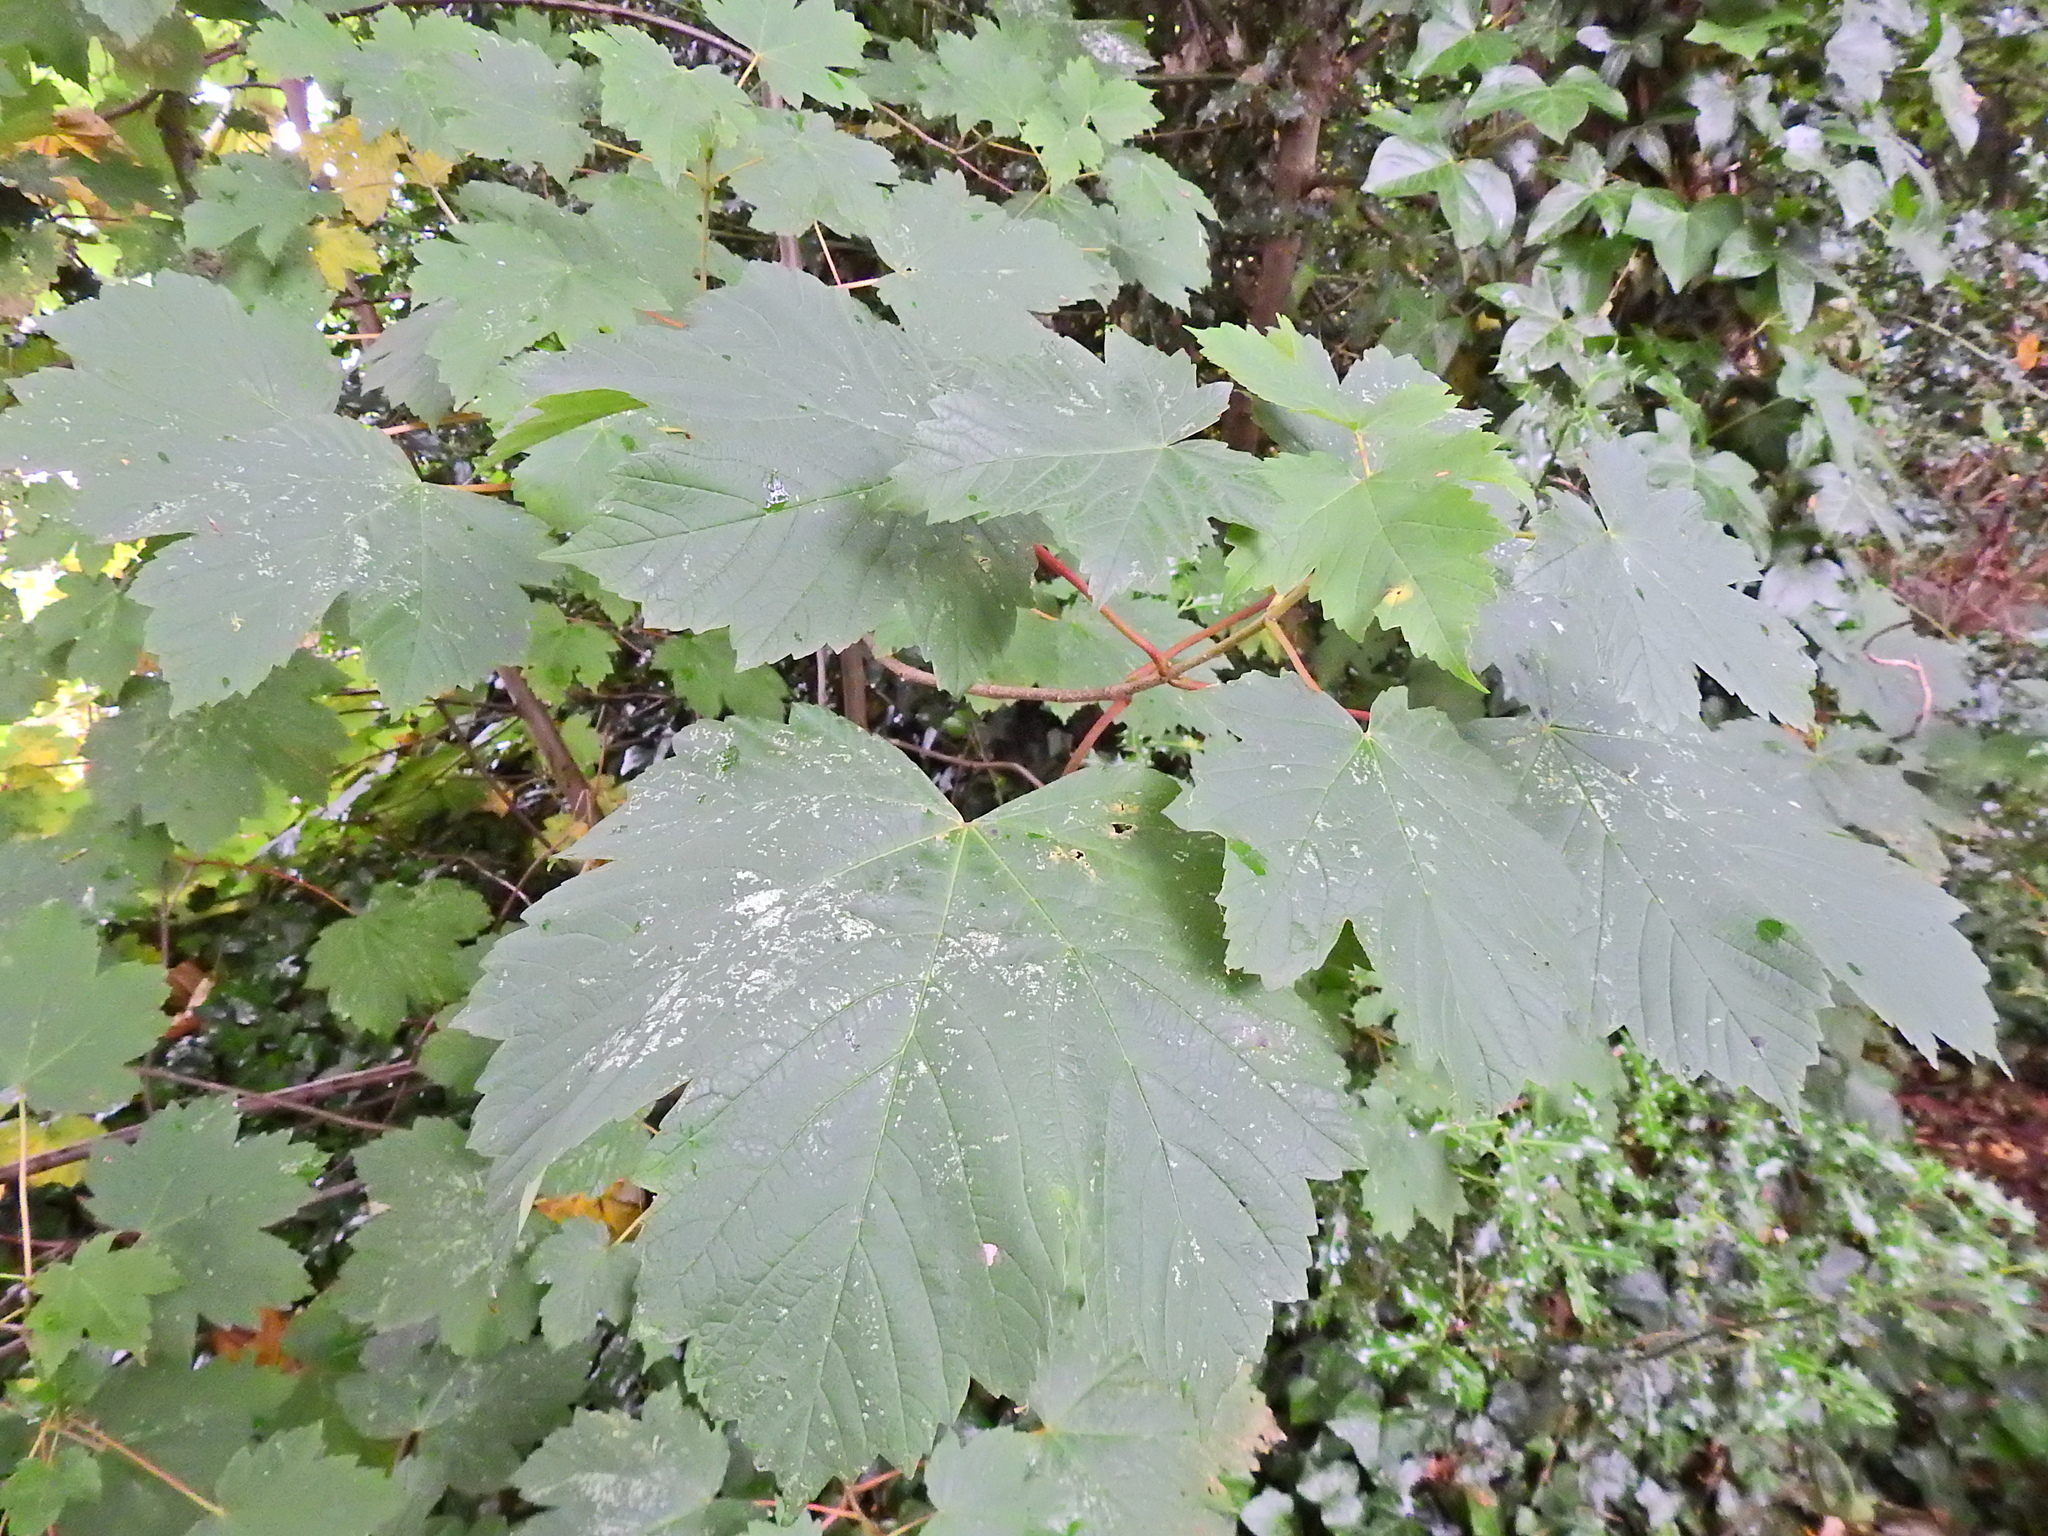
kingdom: Plantae
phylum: Tracheophyta
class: Magnoliopsida
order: Sapindales
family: Sapindaceae
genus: Acer
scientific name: Acer pseudoplatanus
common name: Sycamore
